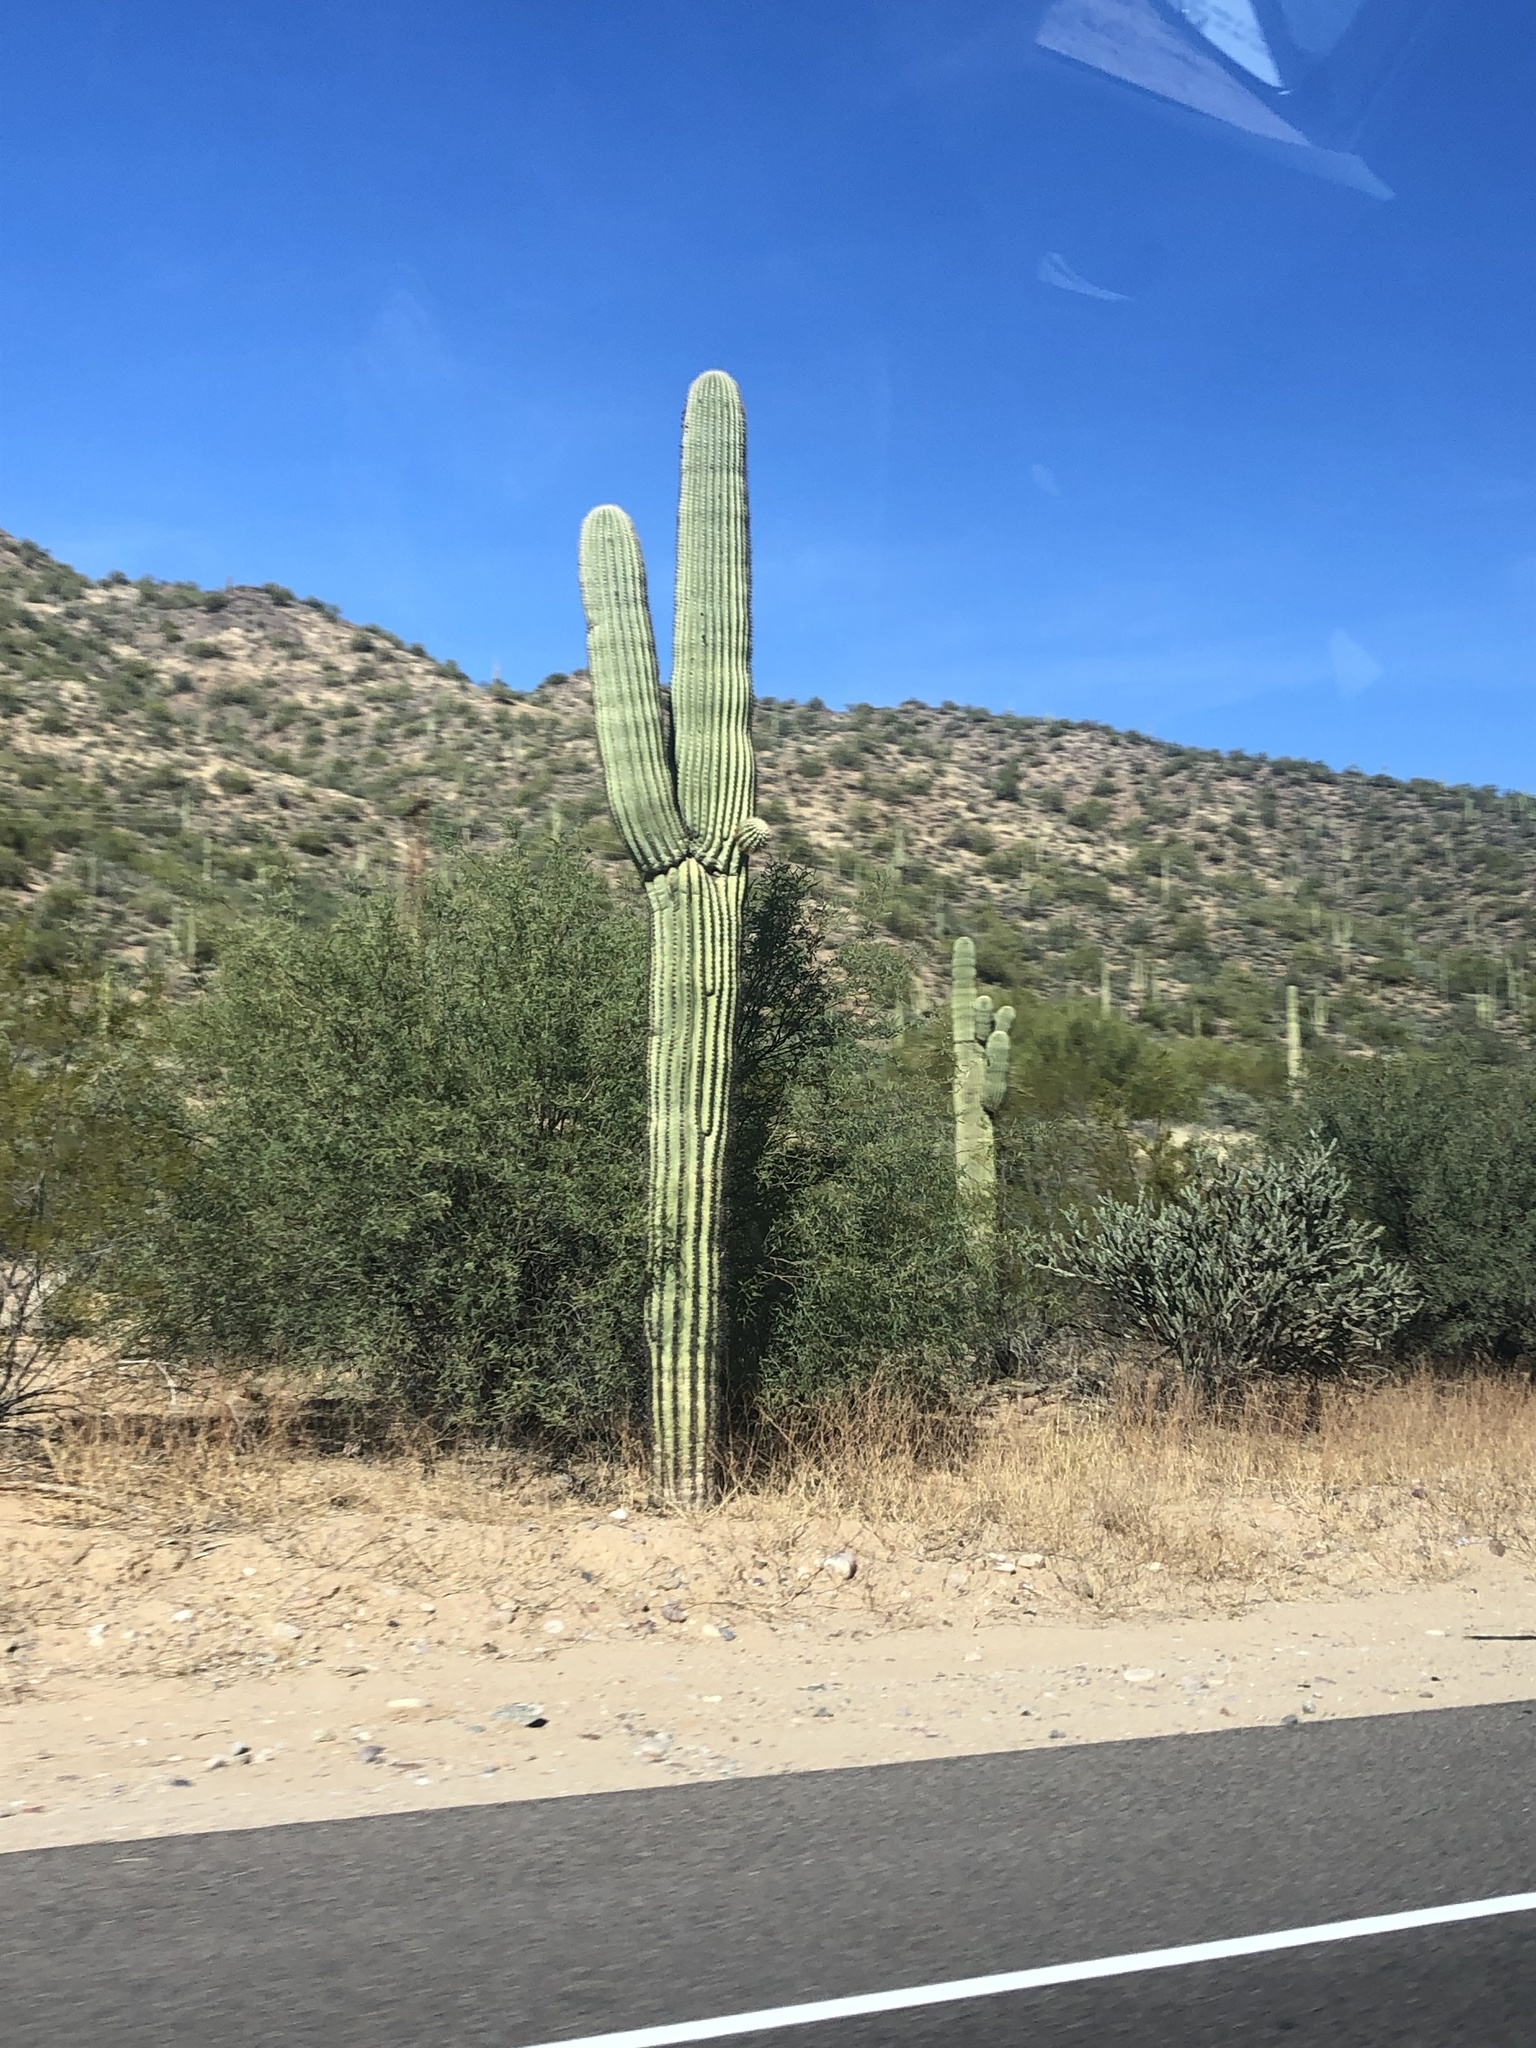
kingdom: Plantae
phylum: Tracheophyta
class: Magnoliopsida
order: Caryophyllales
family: Cactaceae
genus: Carnegiea
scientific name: Carnegiea gigantea
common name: Saguaro
